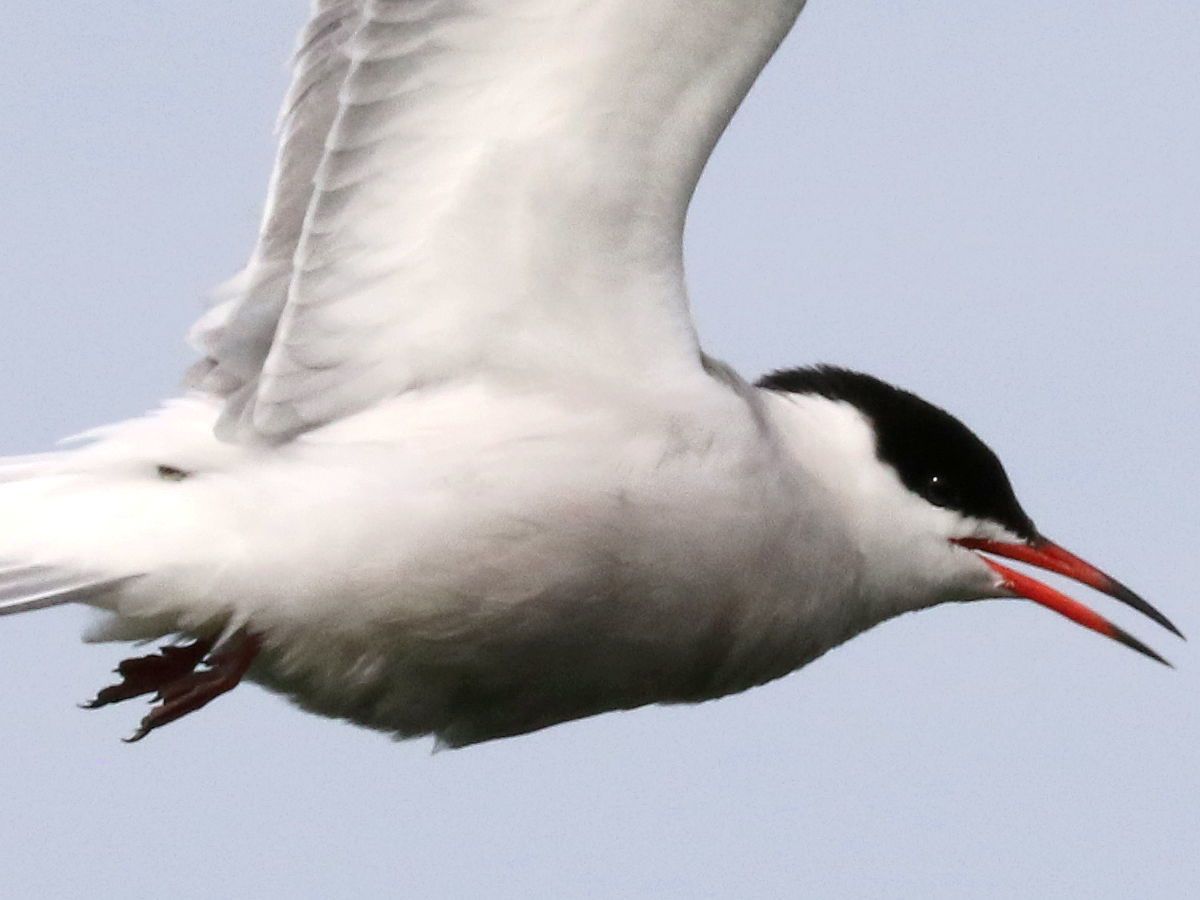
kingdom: Animalia
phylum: Chordata
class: Aves
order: Charadriiformes
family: Laridae
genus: Sterna
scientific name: Sterna hirundo
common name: Common tern
